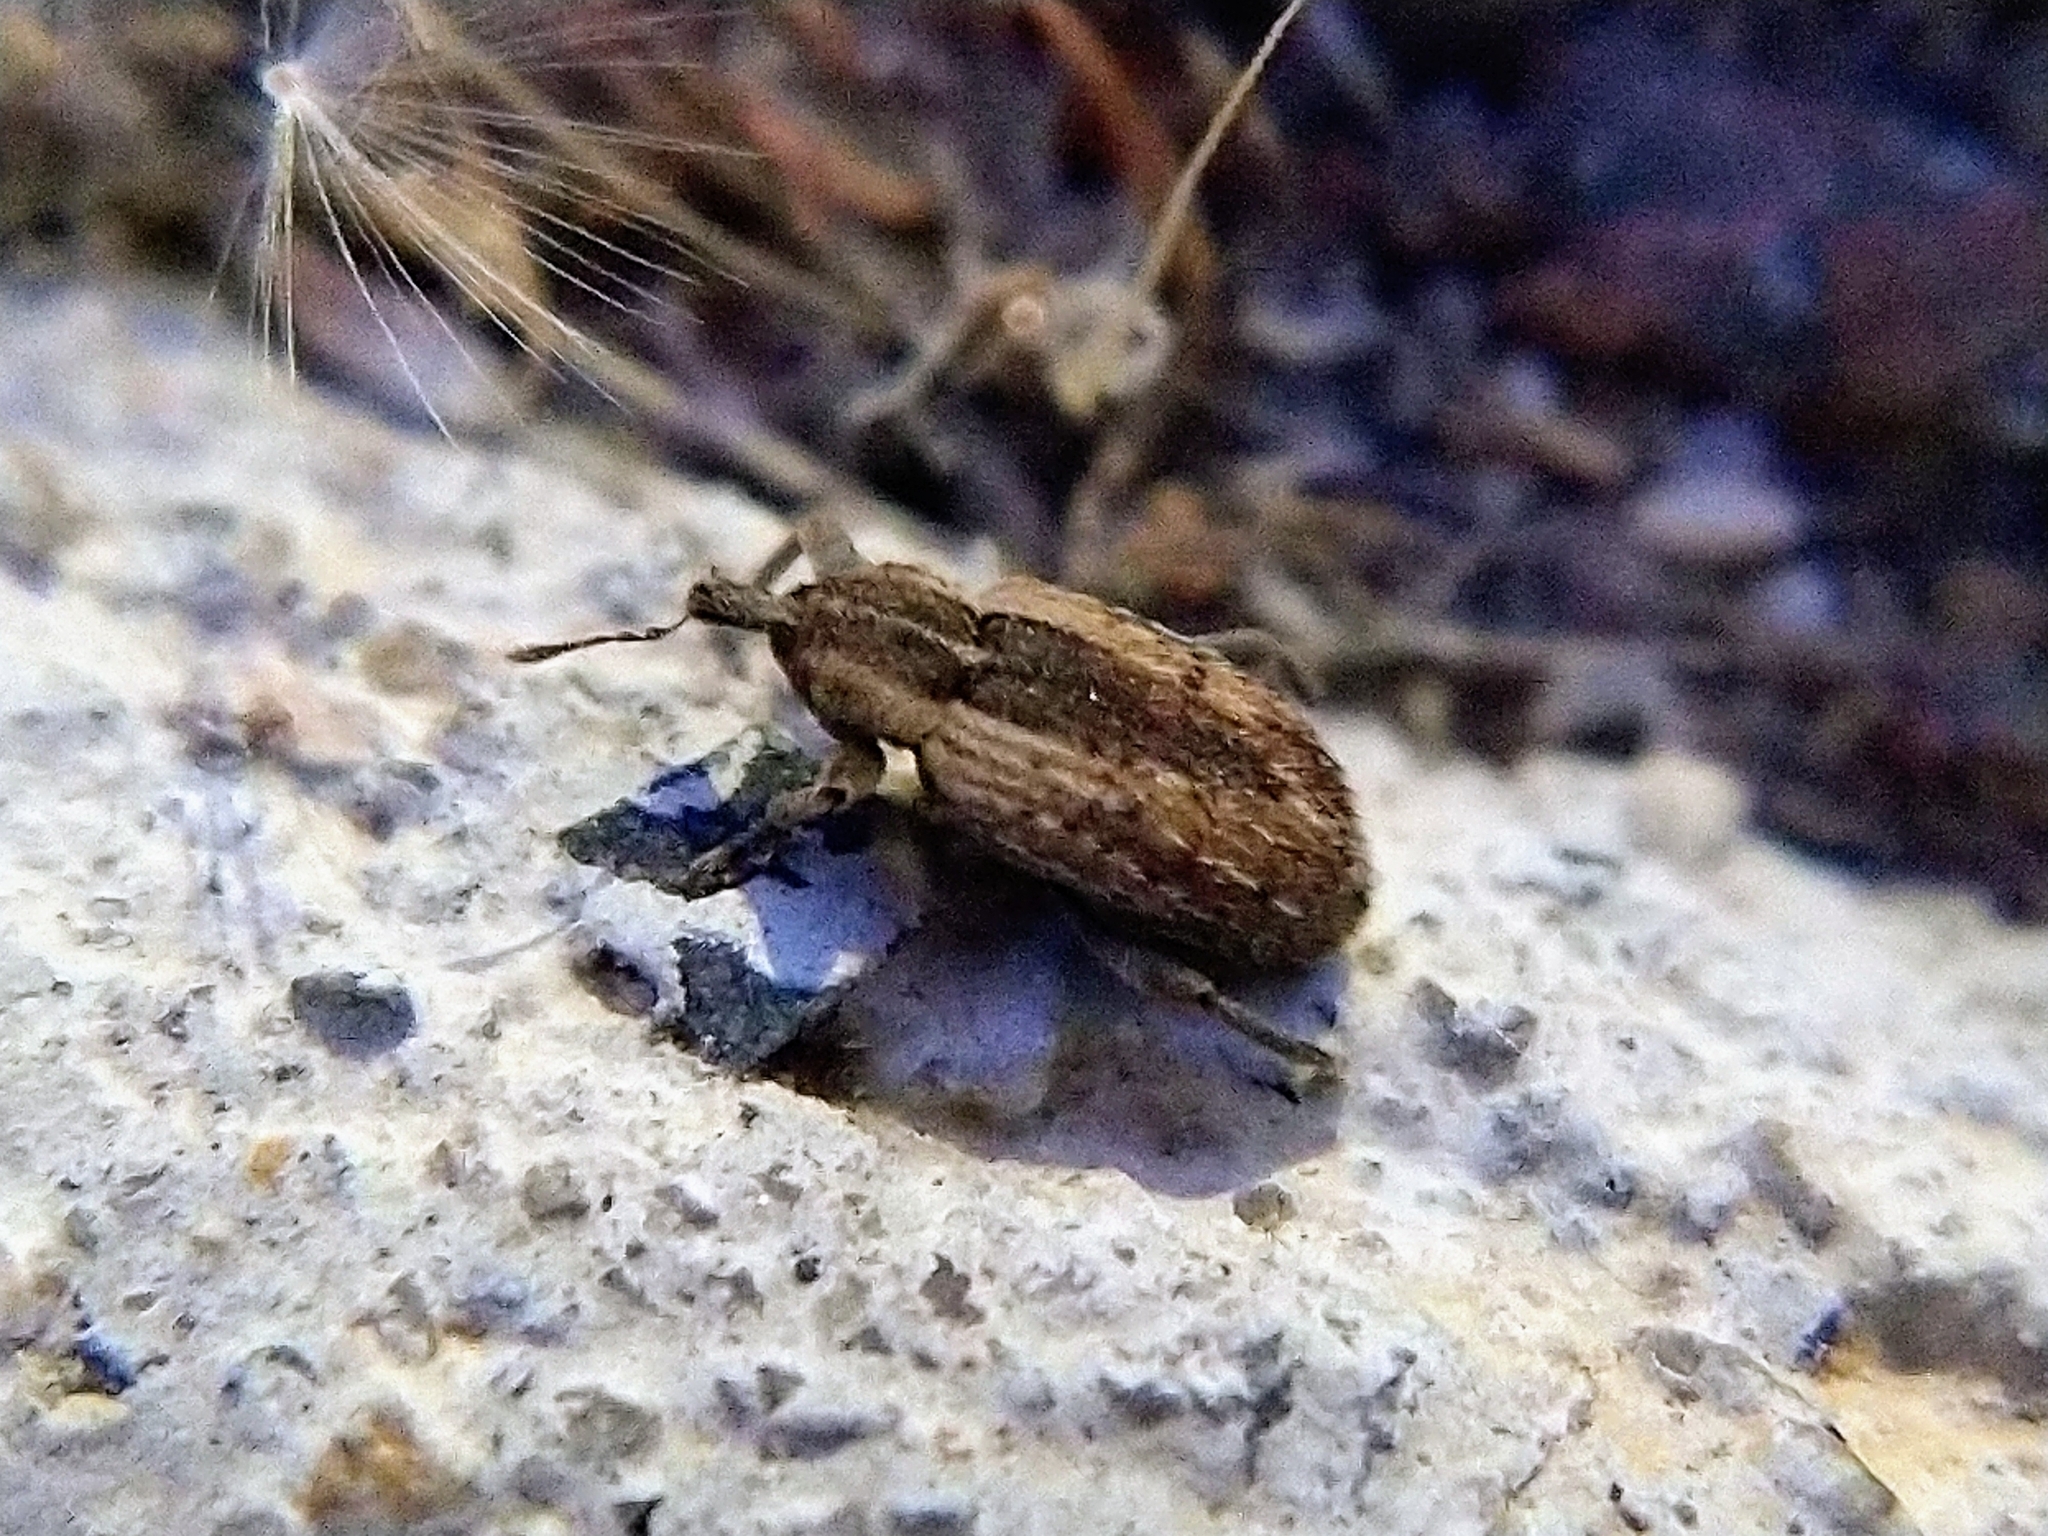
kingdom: Animalia
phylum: Arthropoda
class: Insecta
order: Coleoptera
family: Curculionidae
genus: Hypera
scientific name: Hypera postica
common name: Weevil
